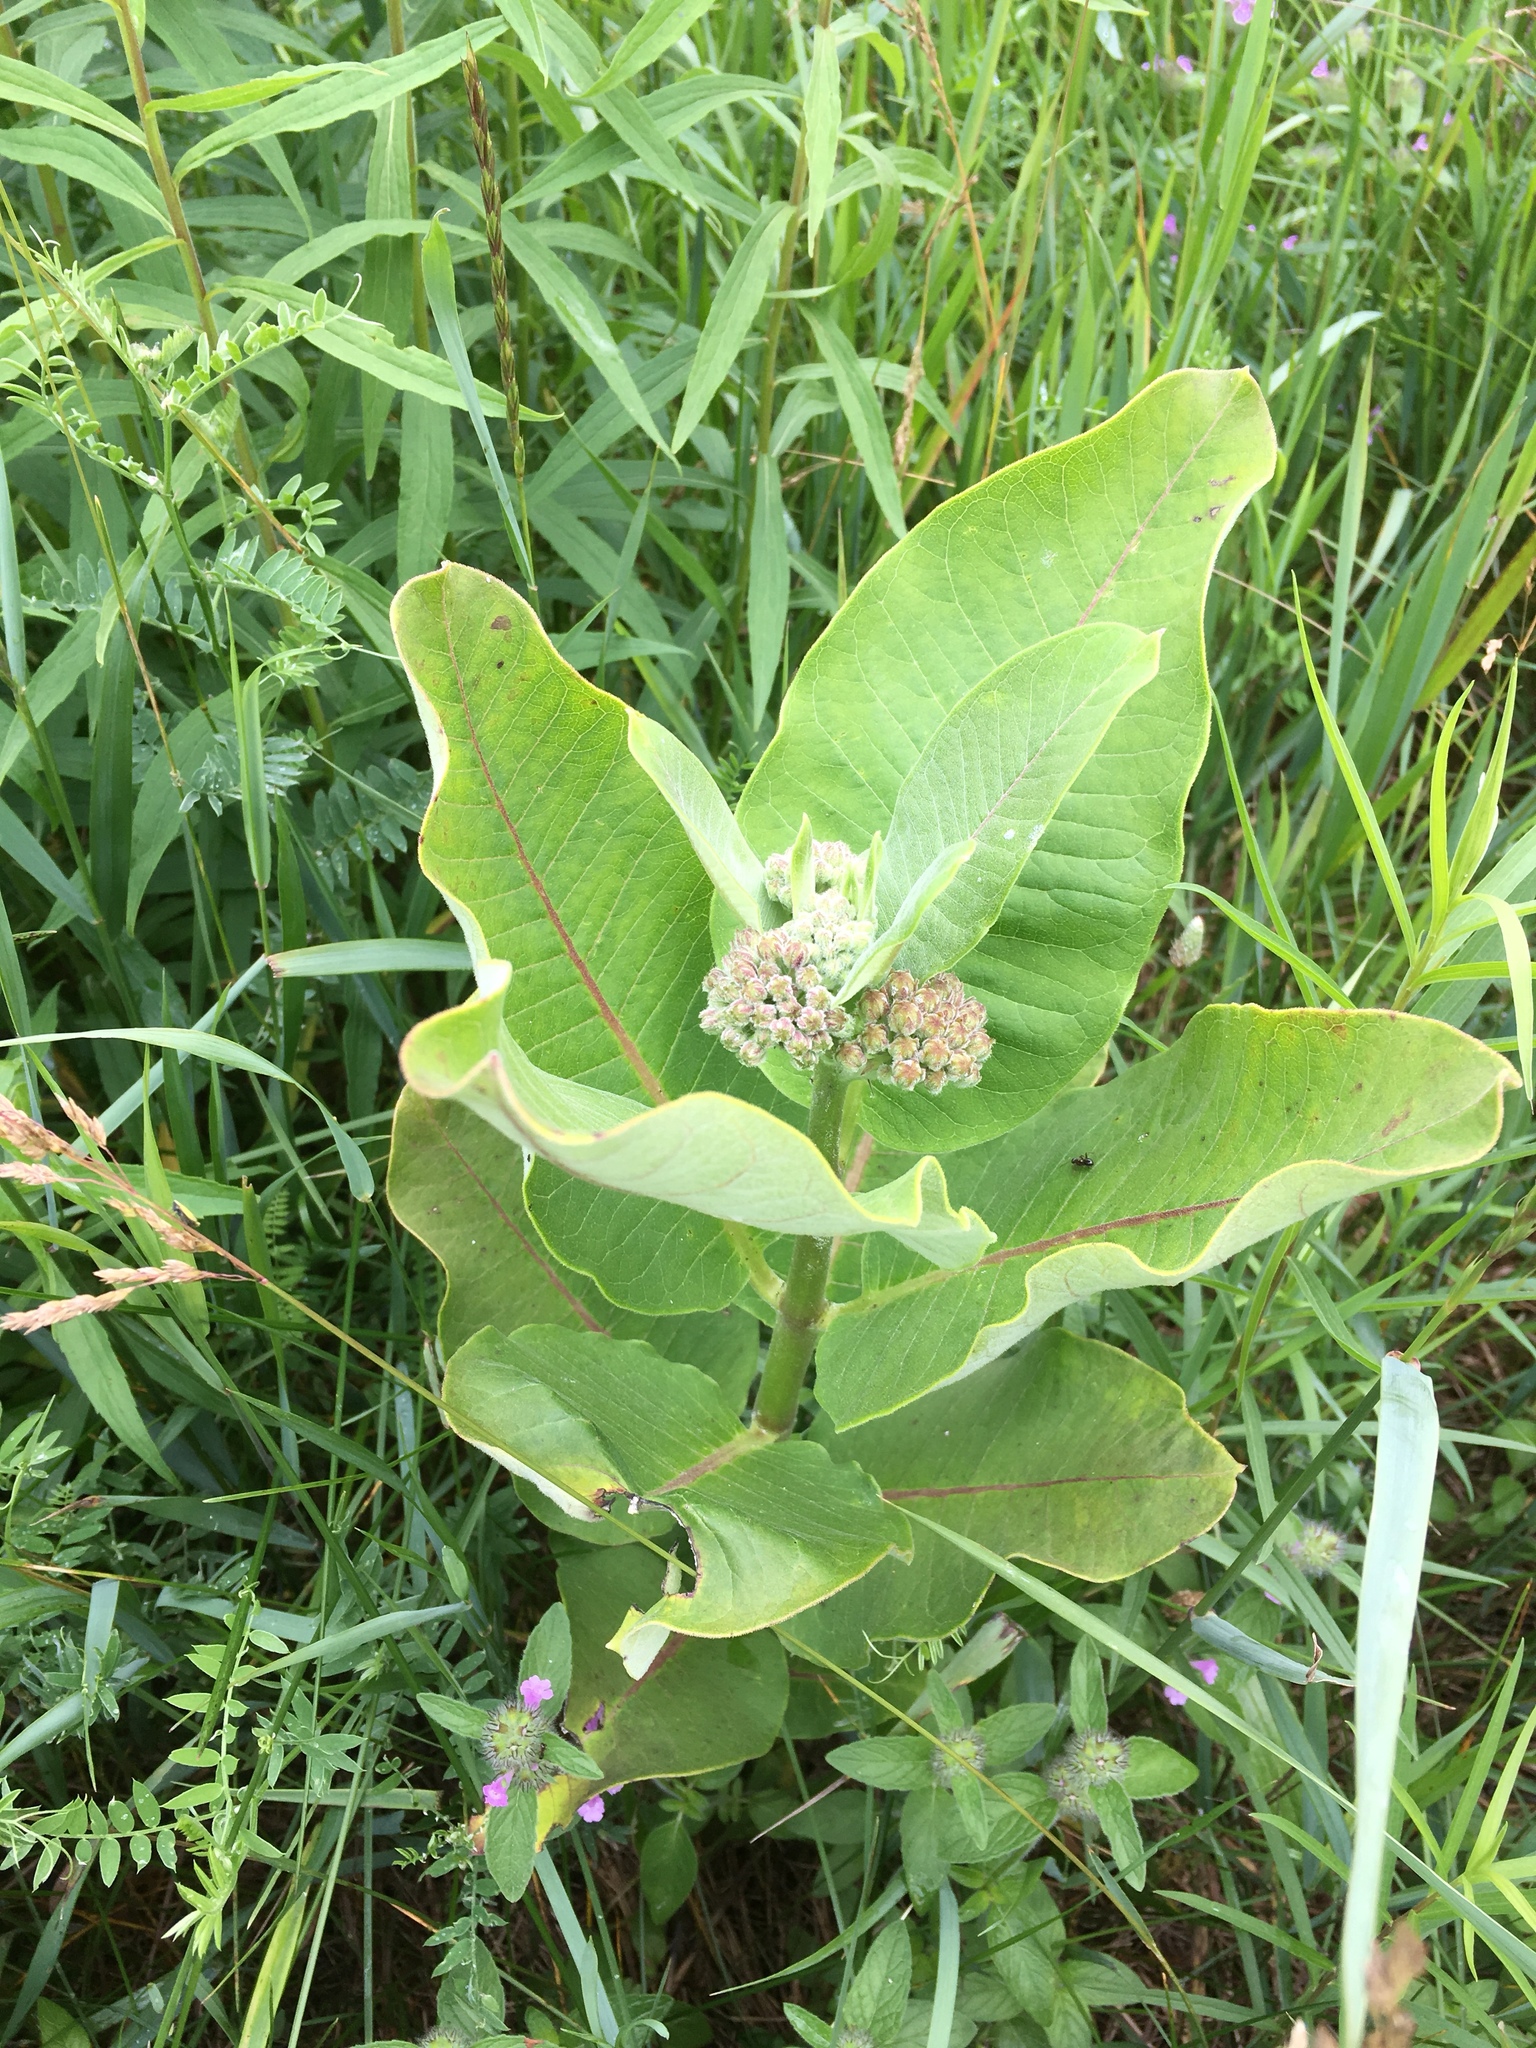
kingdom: Plantae
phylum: Tracheophyta
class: Magnoliopsida
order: Gentianales
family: Apocynaceae
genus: Asclepias
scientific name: Asclepias syriaca
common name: Common milkweed
